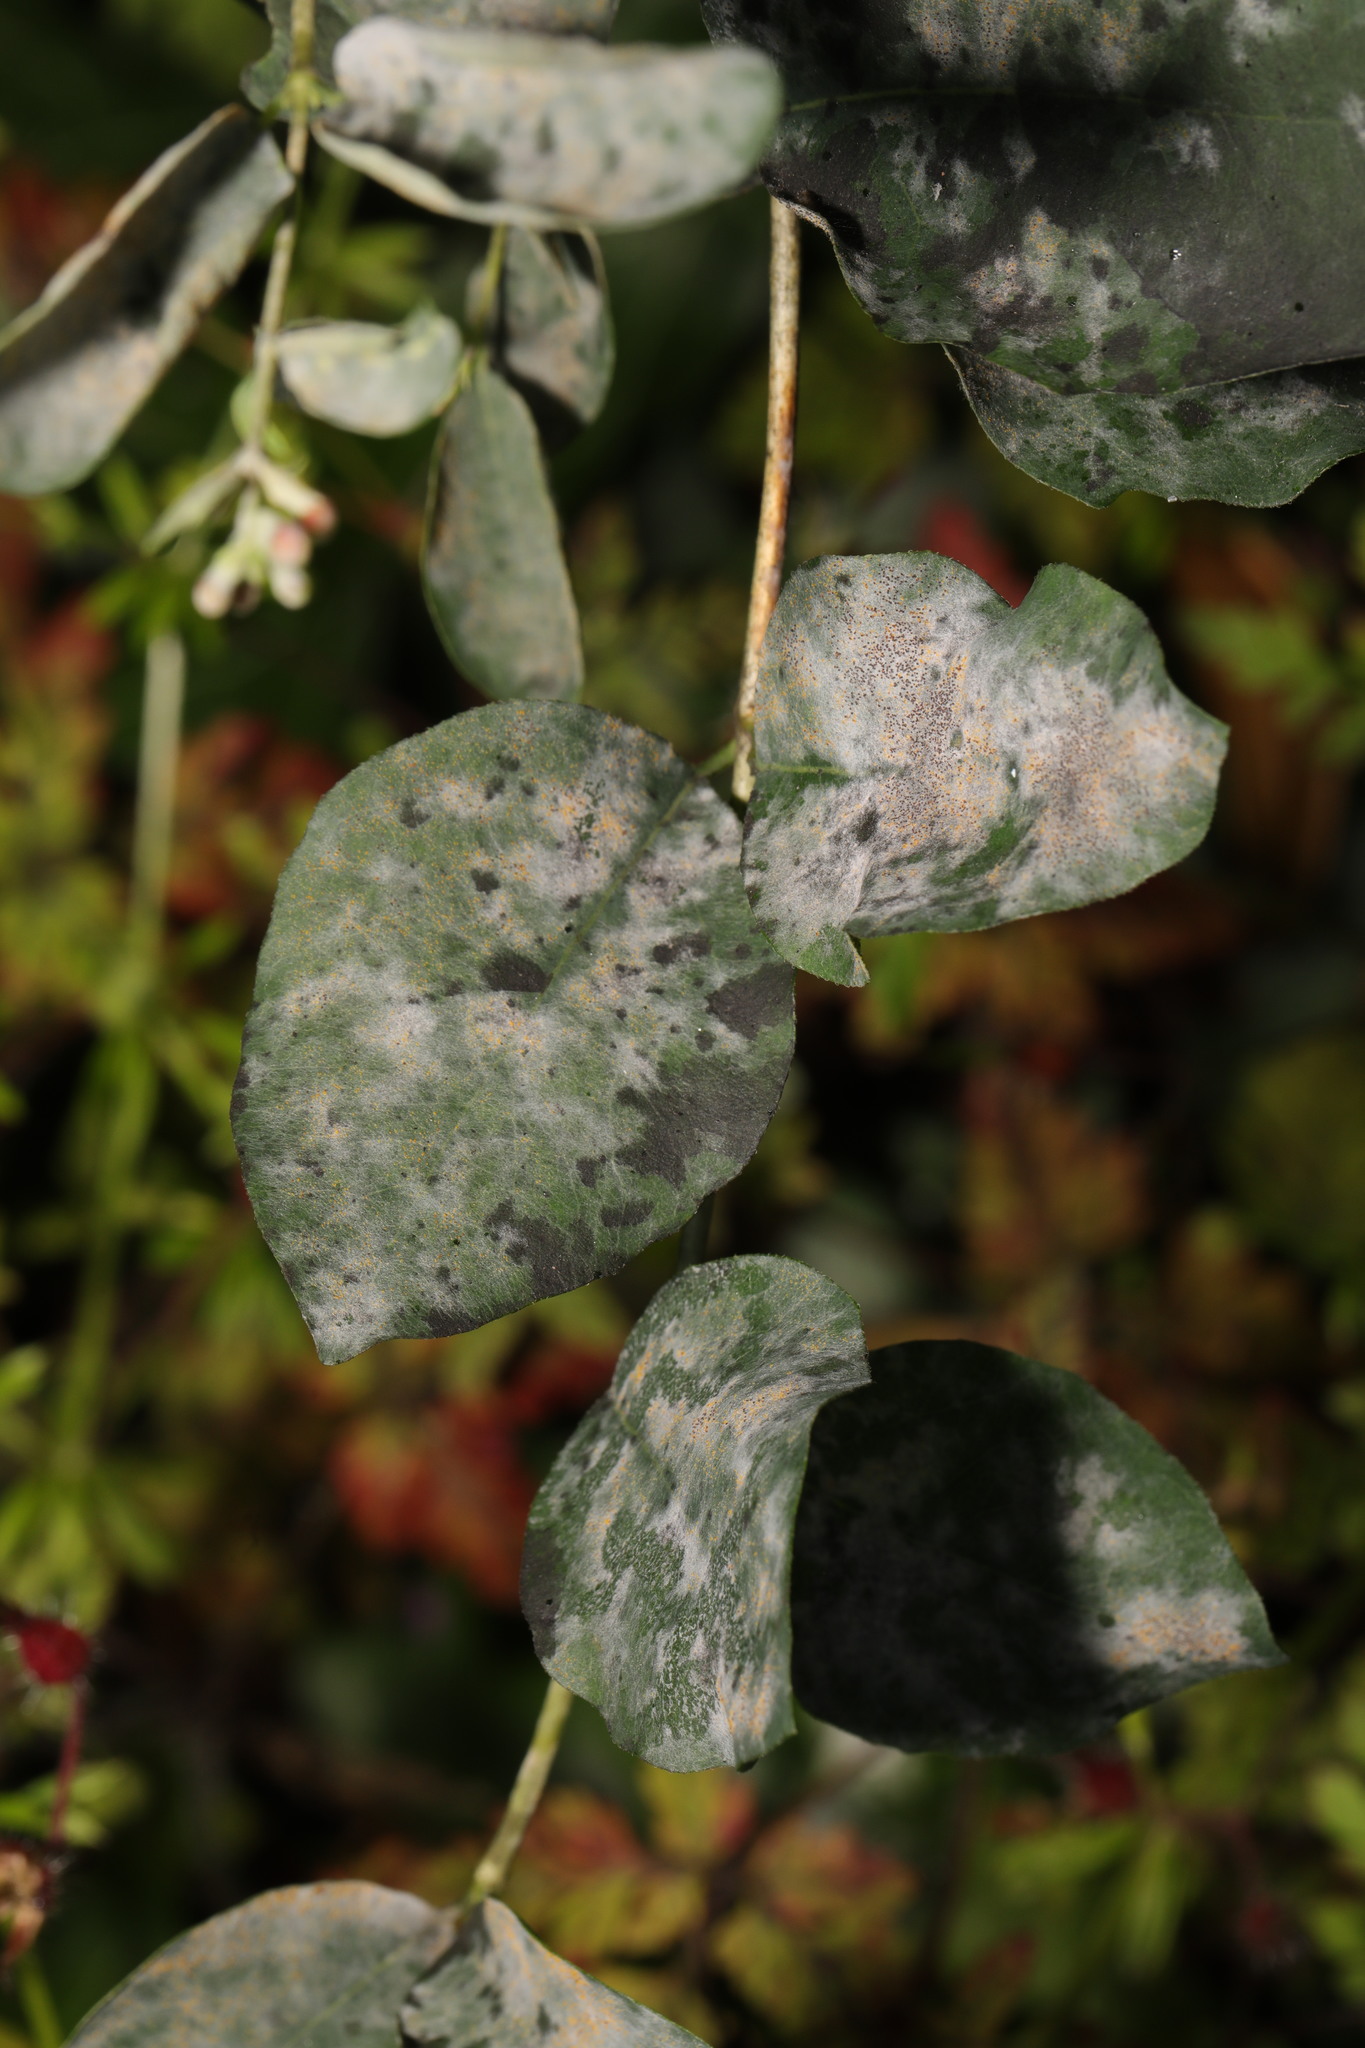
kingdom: Fungi
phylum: Ascomycota
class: Leotiomycetes
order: Helotiales
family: Erysiphaceae
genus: Erysiphe
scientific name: Erysiphe symphoricarpi
